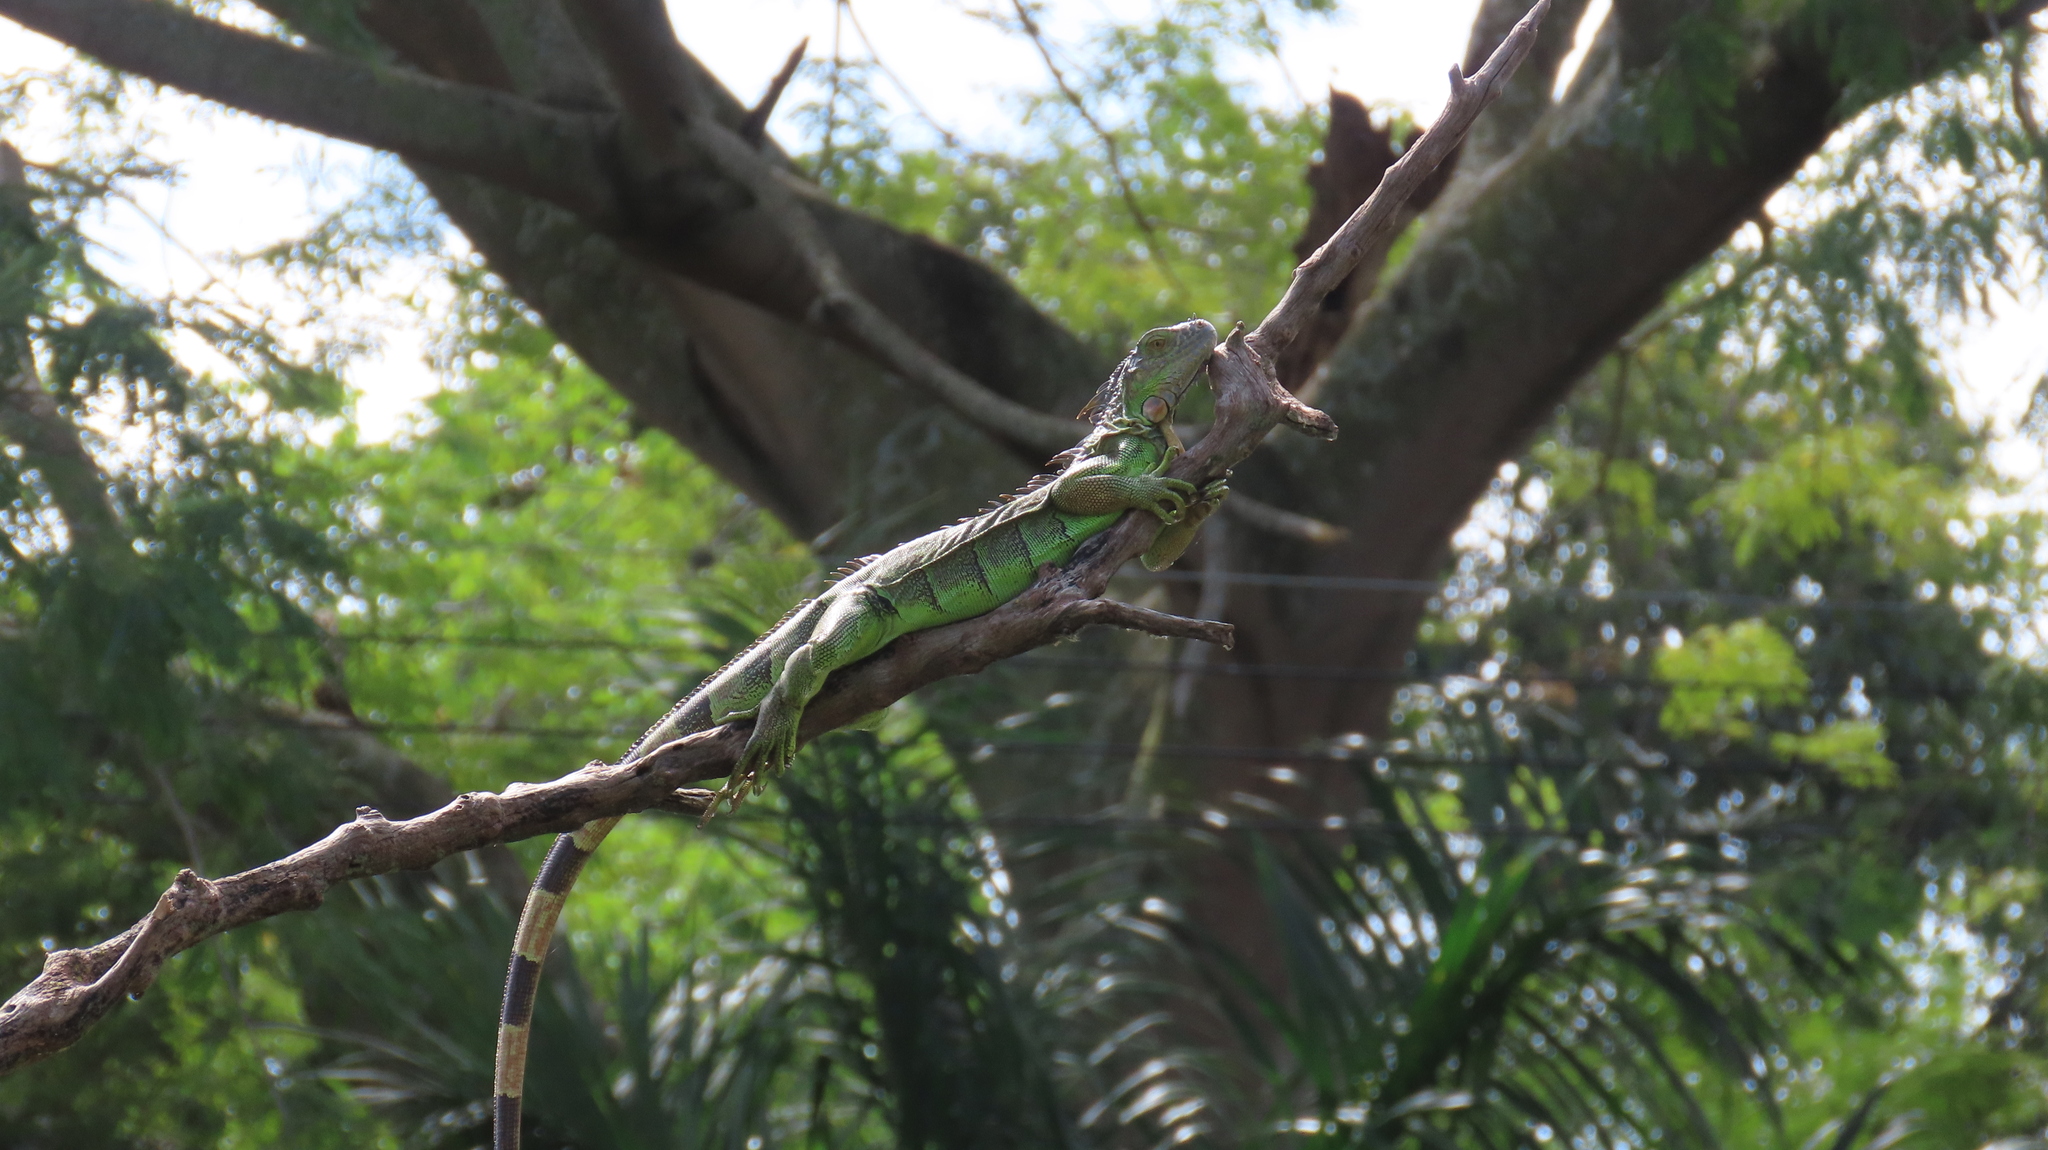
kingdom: Animalia
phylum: Chordata
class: Squamata
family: Iguanidae
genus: Iguana
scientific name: Iguana iguana
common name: Green iguana
